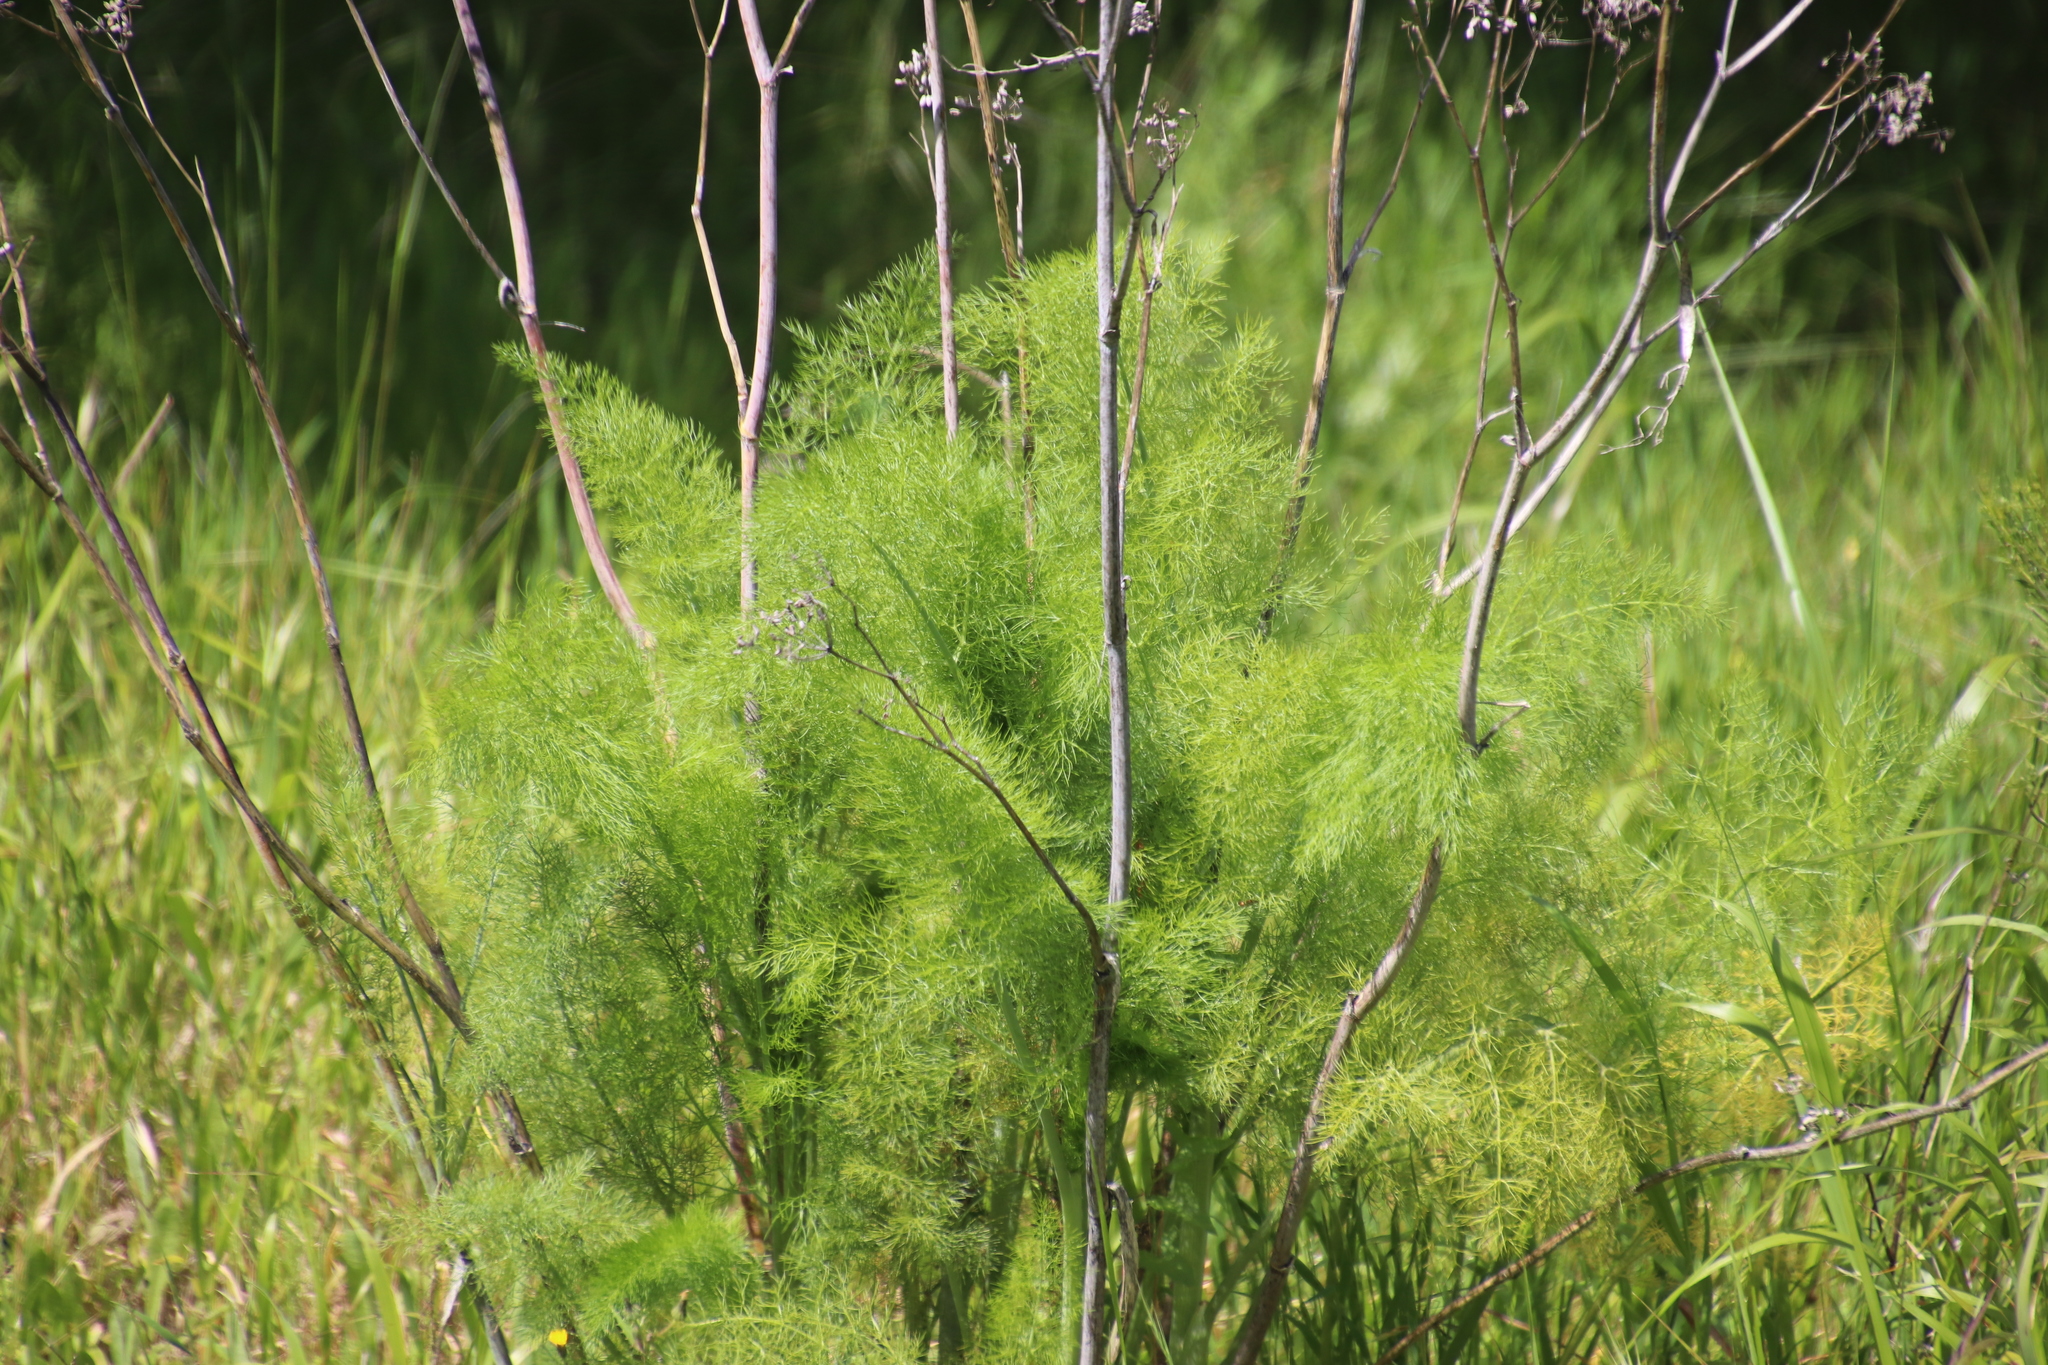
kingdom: Plantae
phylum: Tracheophyta
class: Magnoliopsida
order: Apiales
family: Apiaceae
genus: Foeniculum
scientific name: Foeniculum vulgare
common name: Fennel
